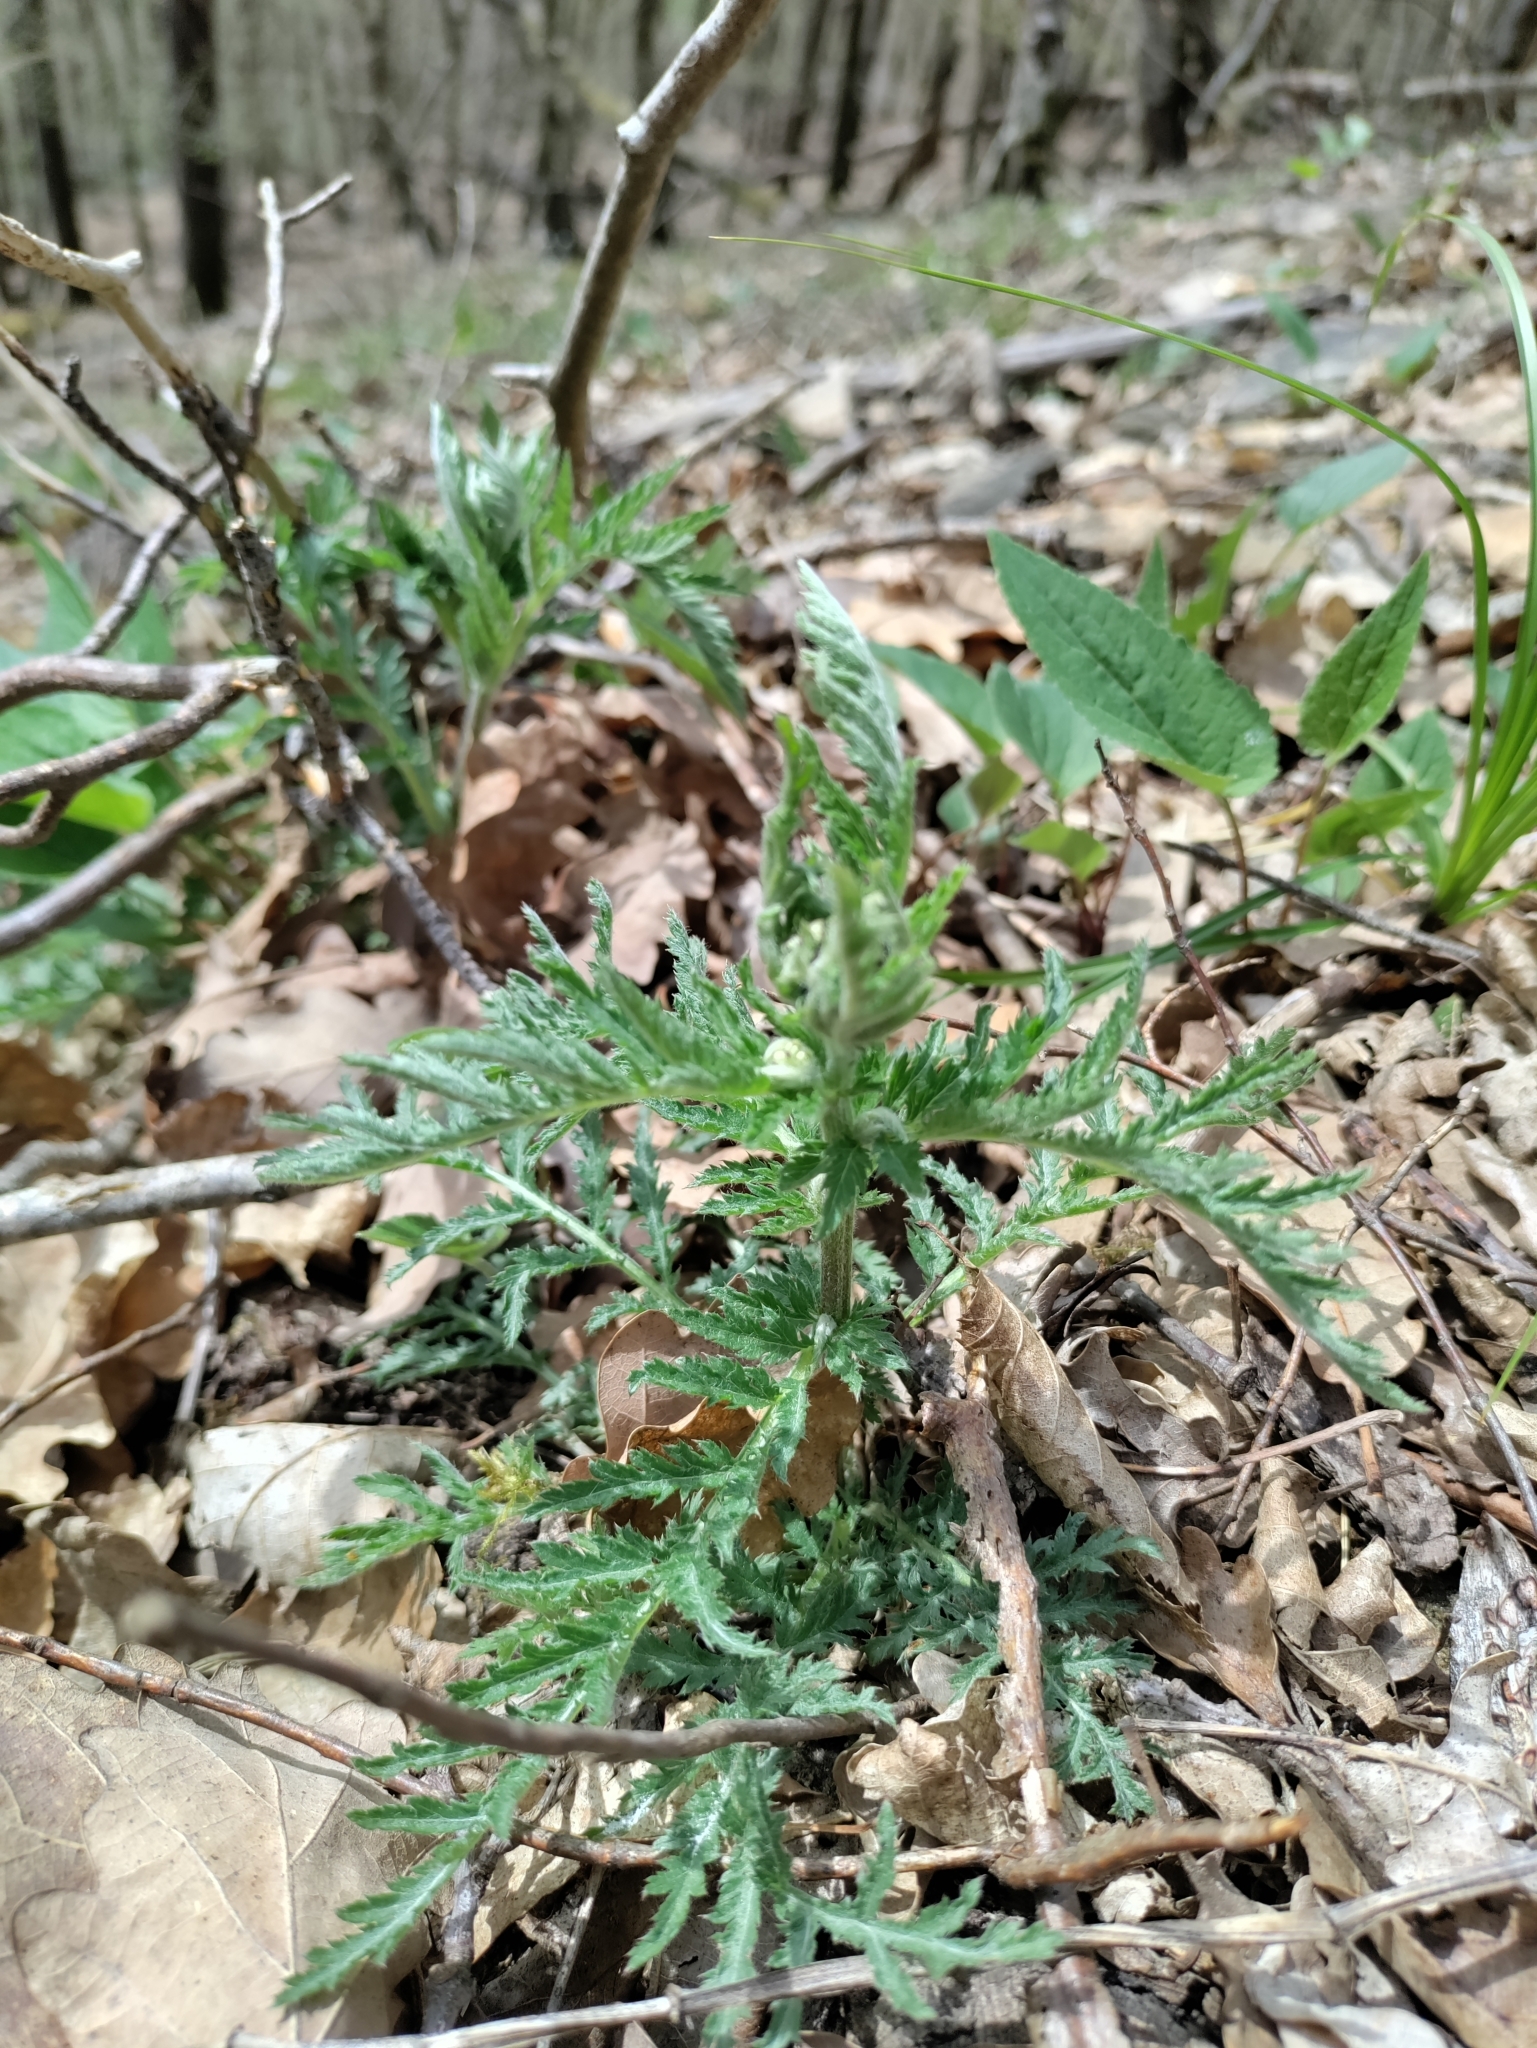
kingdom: Plantae
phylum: Tracheophyta
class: Magnoliopsida
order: Asterales
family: Asteraceae
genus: Tanacetum
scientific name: Tanacetum corymbosum
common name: Scentless feverfew
